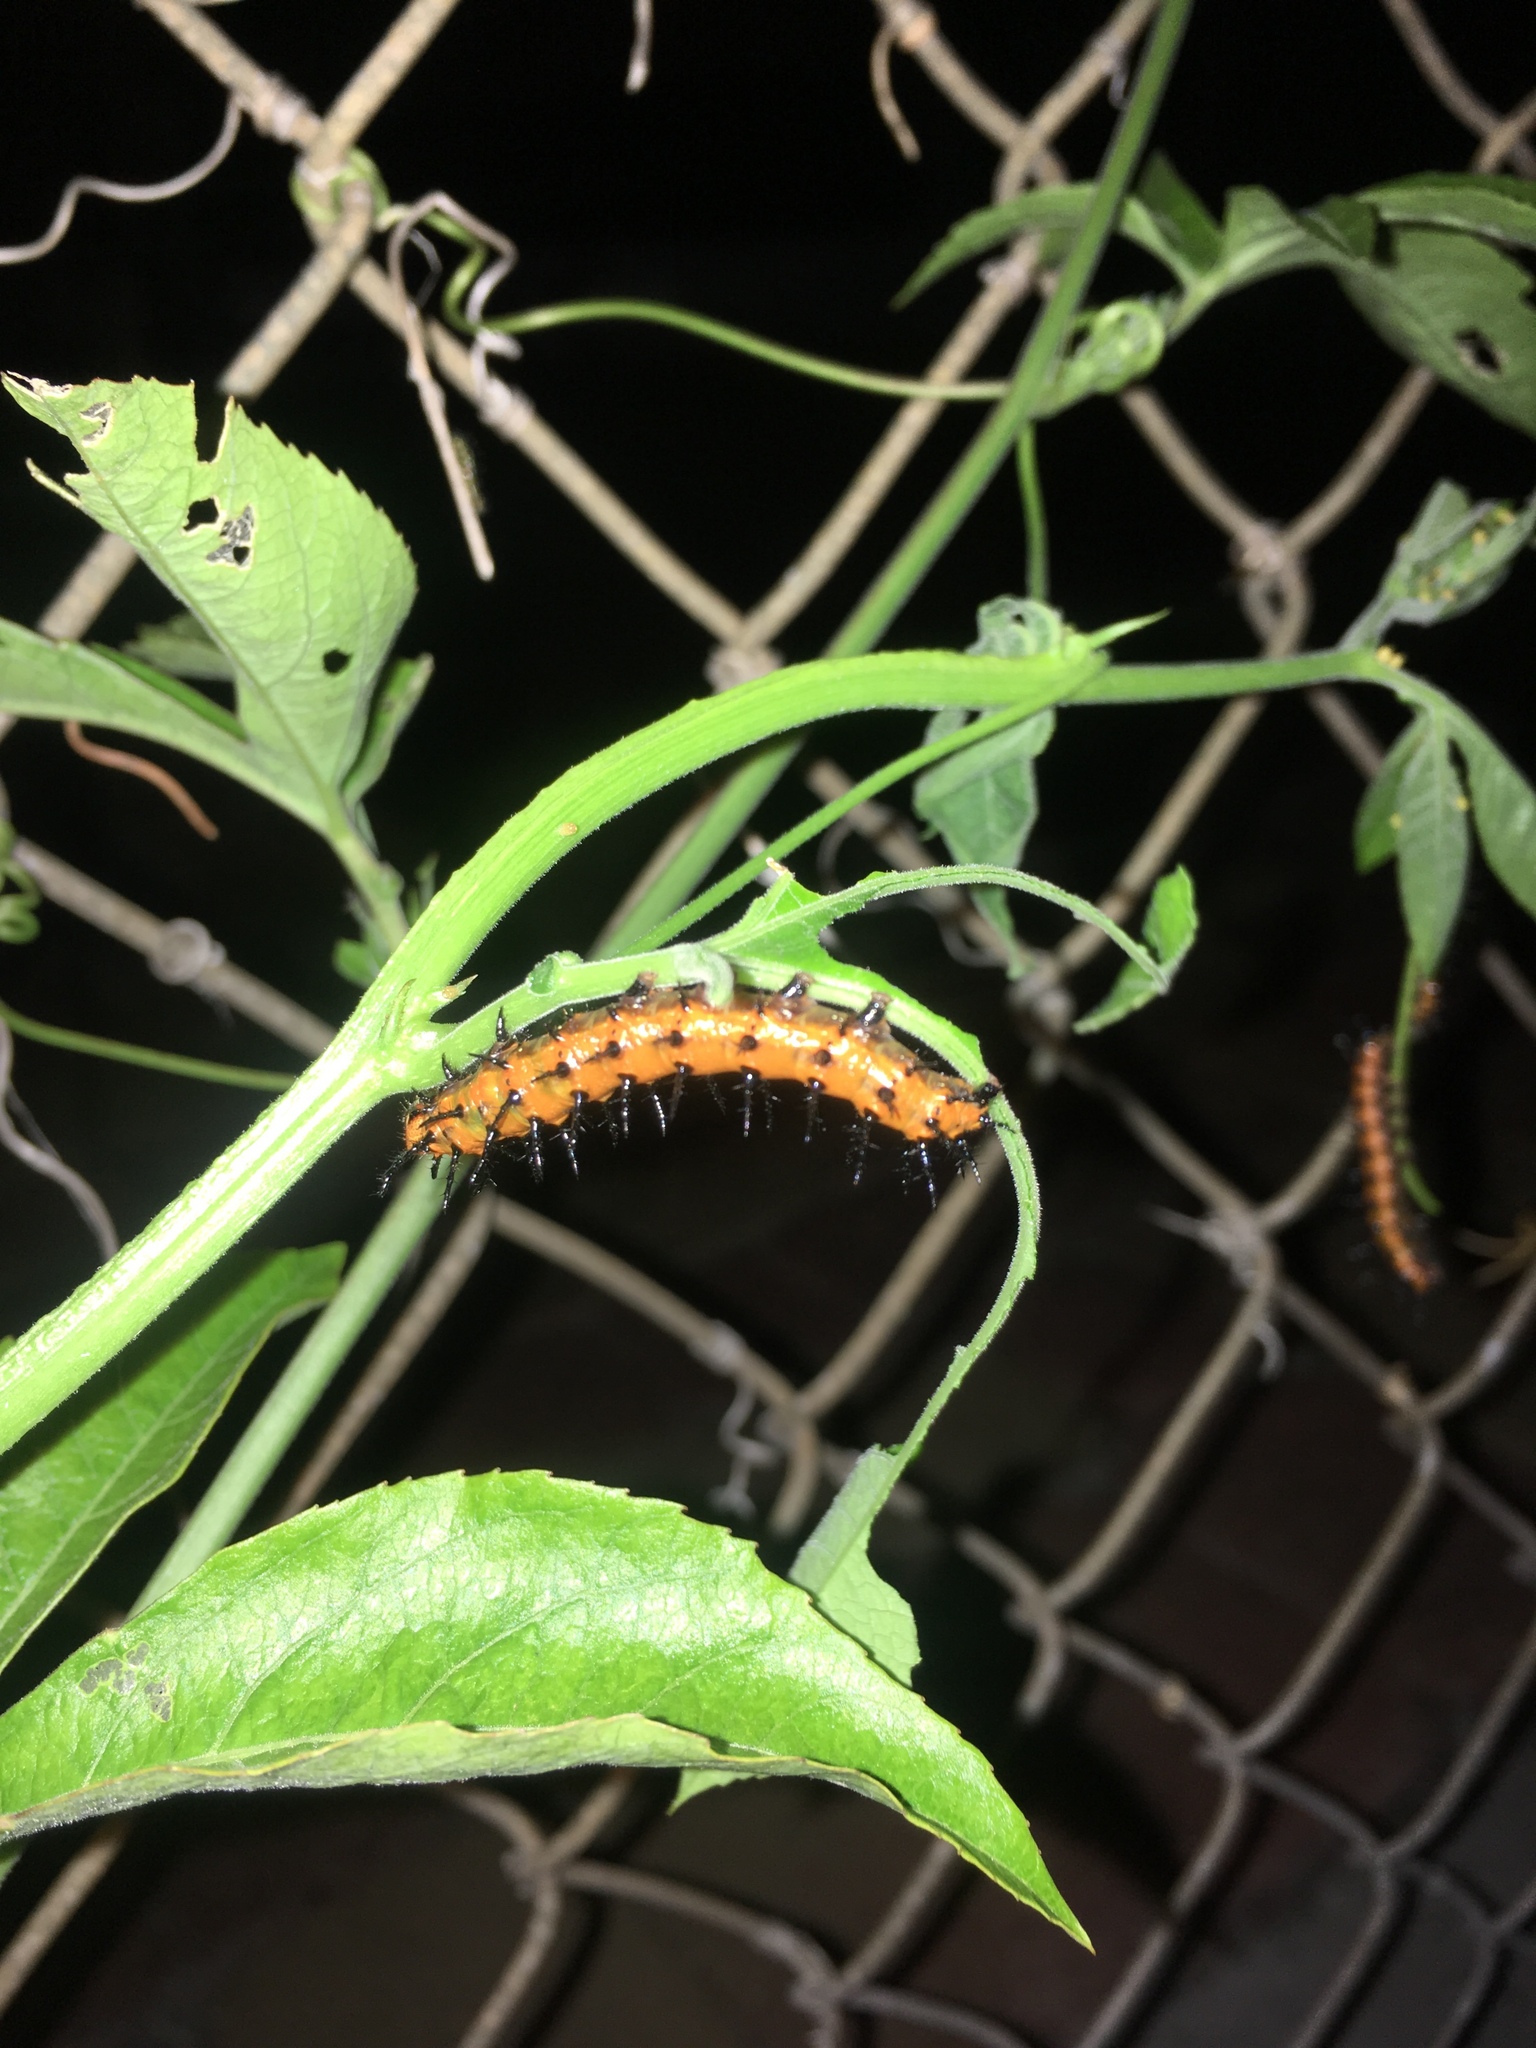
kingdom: Animalia
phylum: Arthropoda
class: Insecta
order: Lepidoptera
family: Nymphalidae
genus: Dione
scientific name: Dione vanillae
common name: Gulf fritillary
